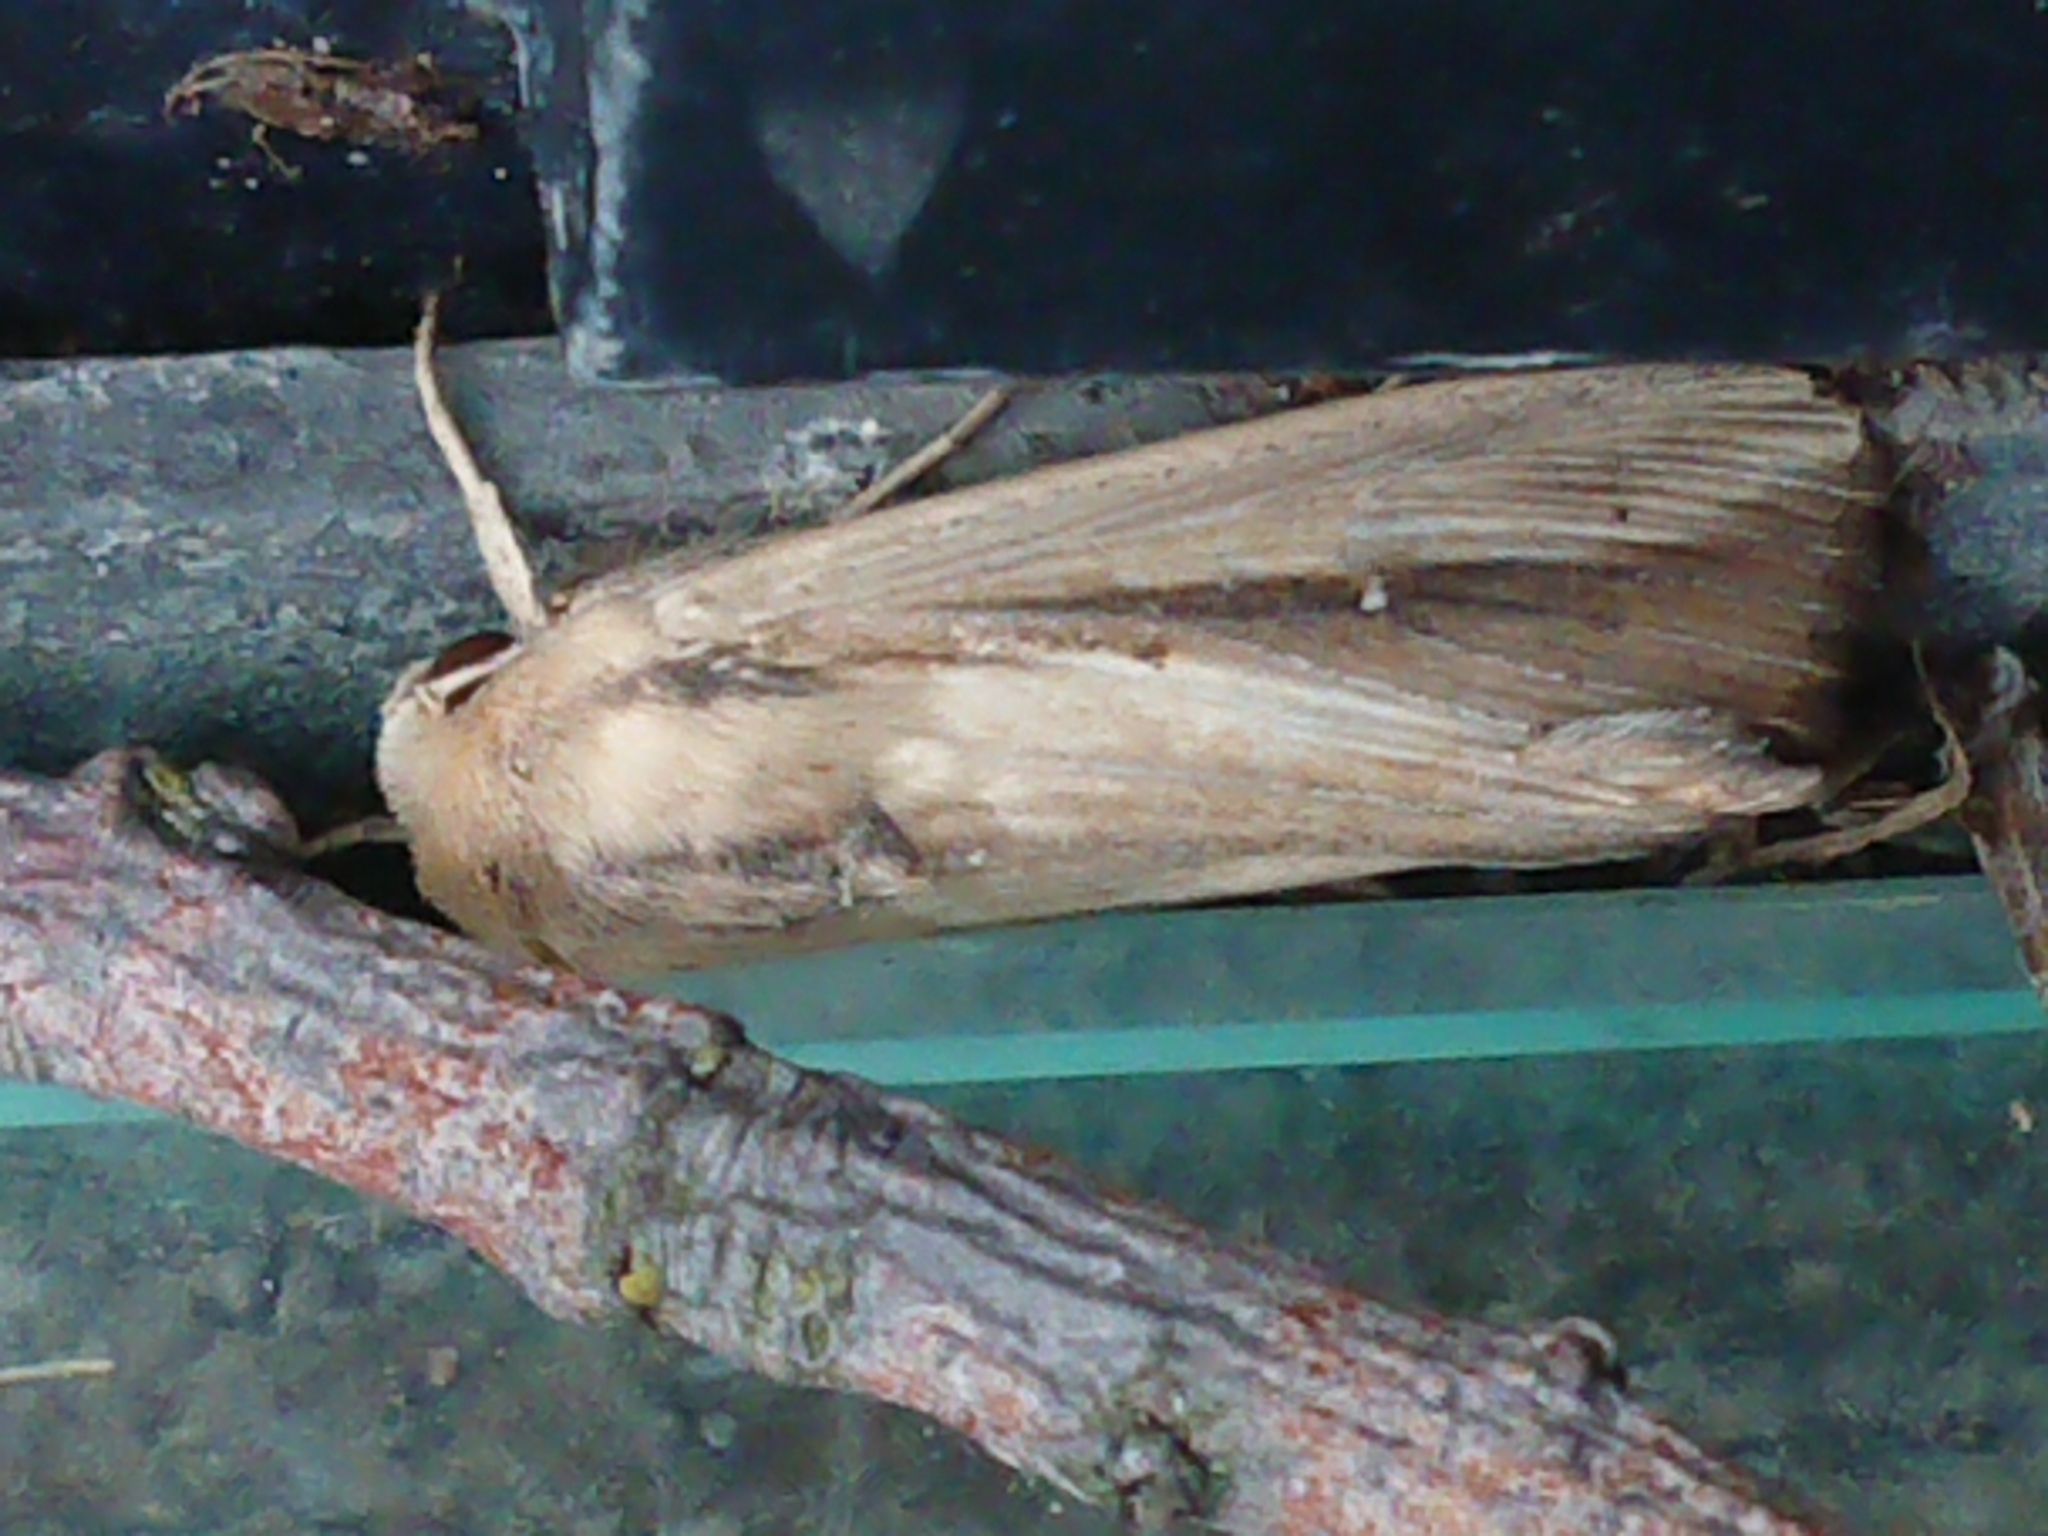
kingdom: Animalia
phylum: Arthropoda
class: Insecta
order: Lepidoptera
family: Noctuidae
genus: Leucania
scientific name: Leucania stenographa
